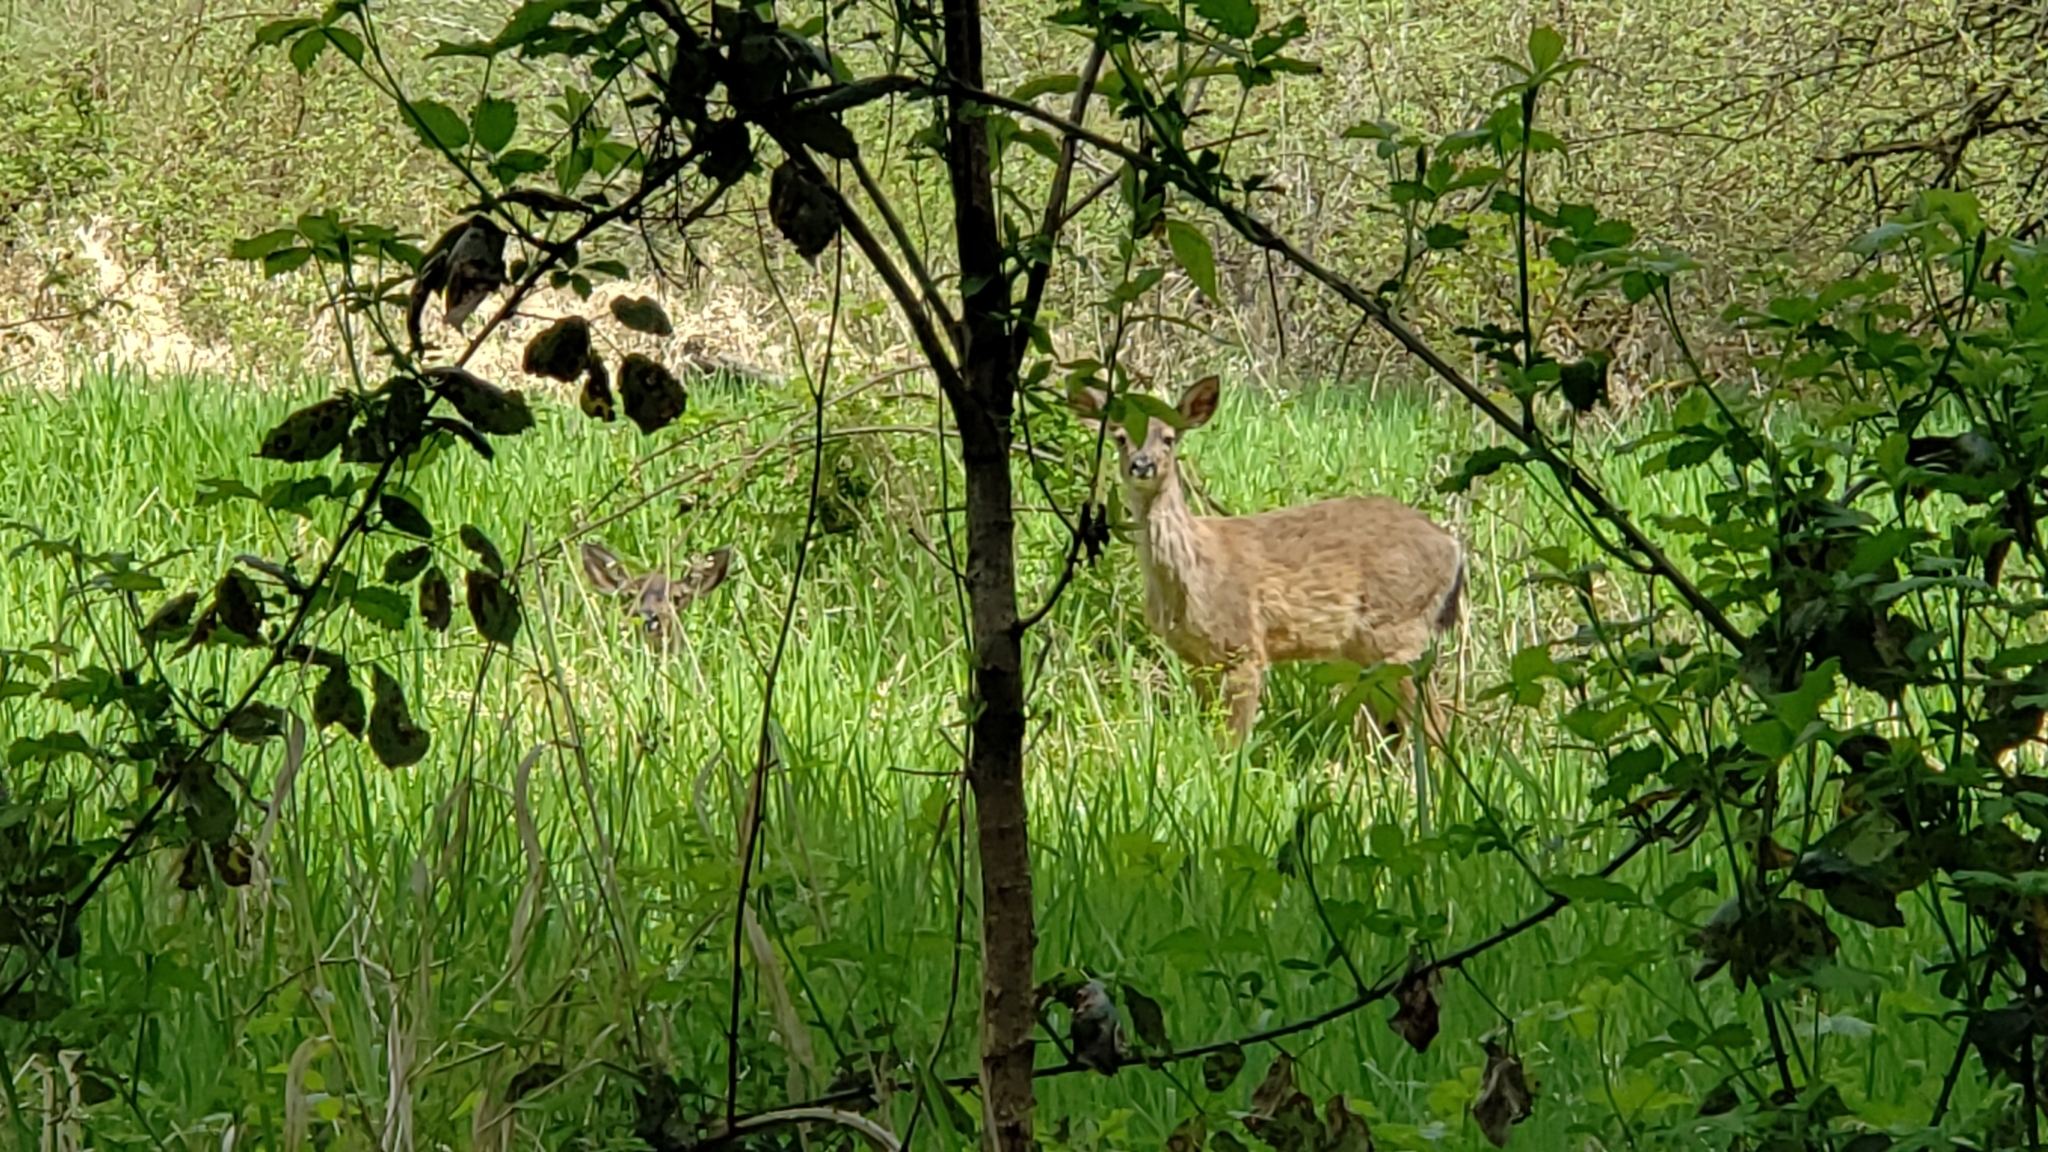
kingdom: Animalia
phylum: Chordata
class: Mammalia
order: Artiodactyla
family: Cervidae
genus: Odocoileus
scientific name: Odocoileus hemionus
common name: Mule deer
